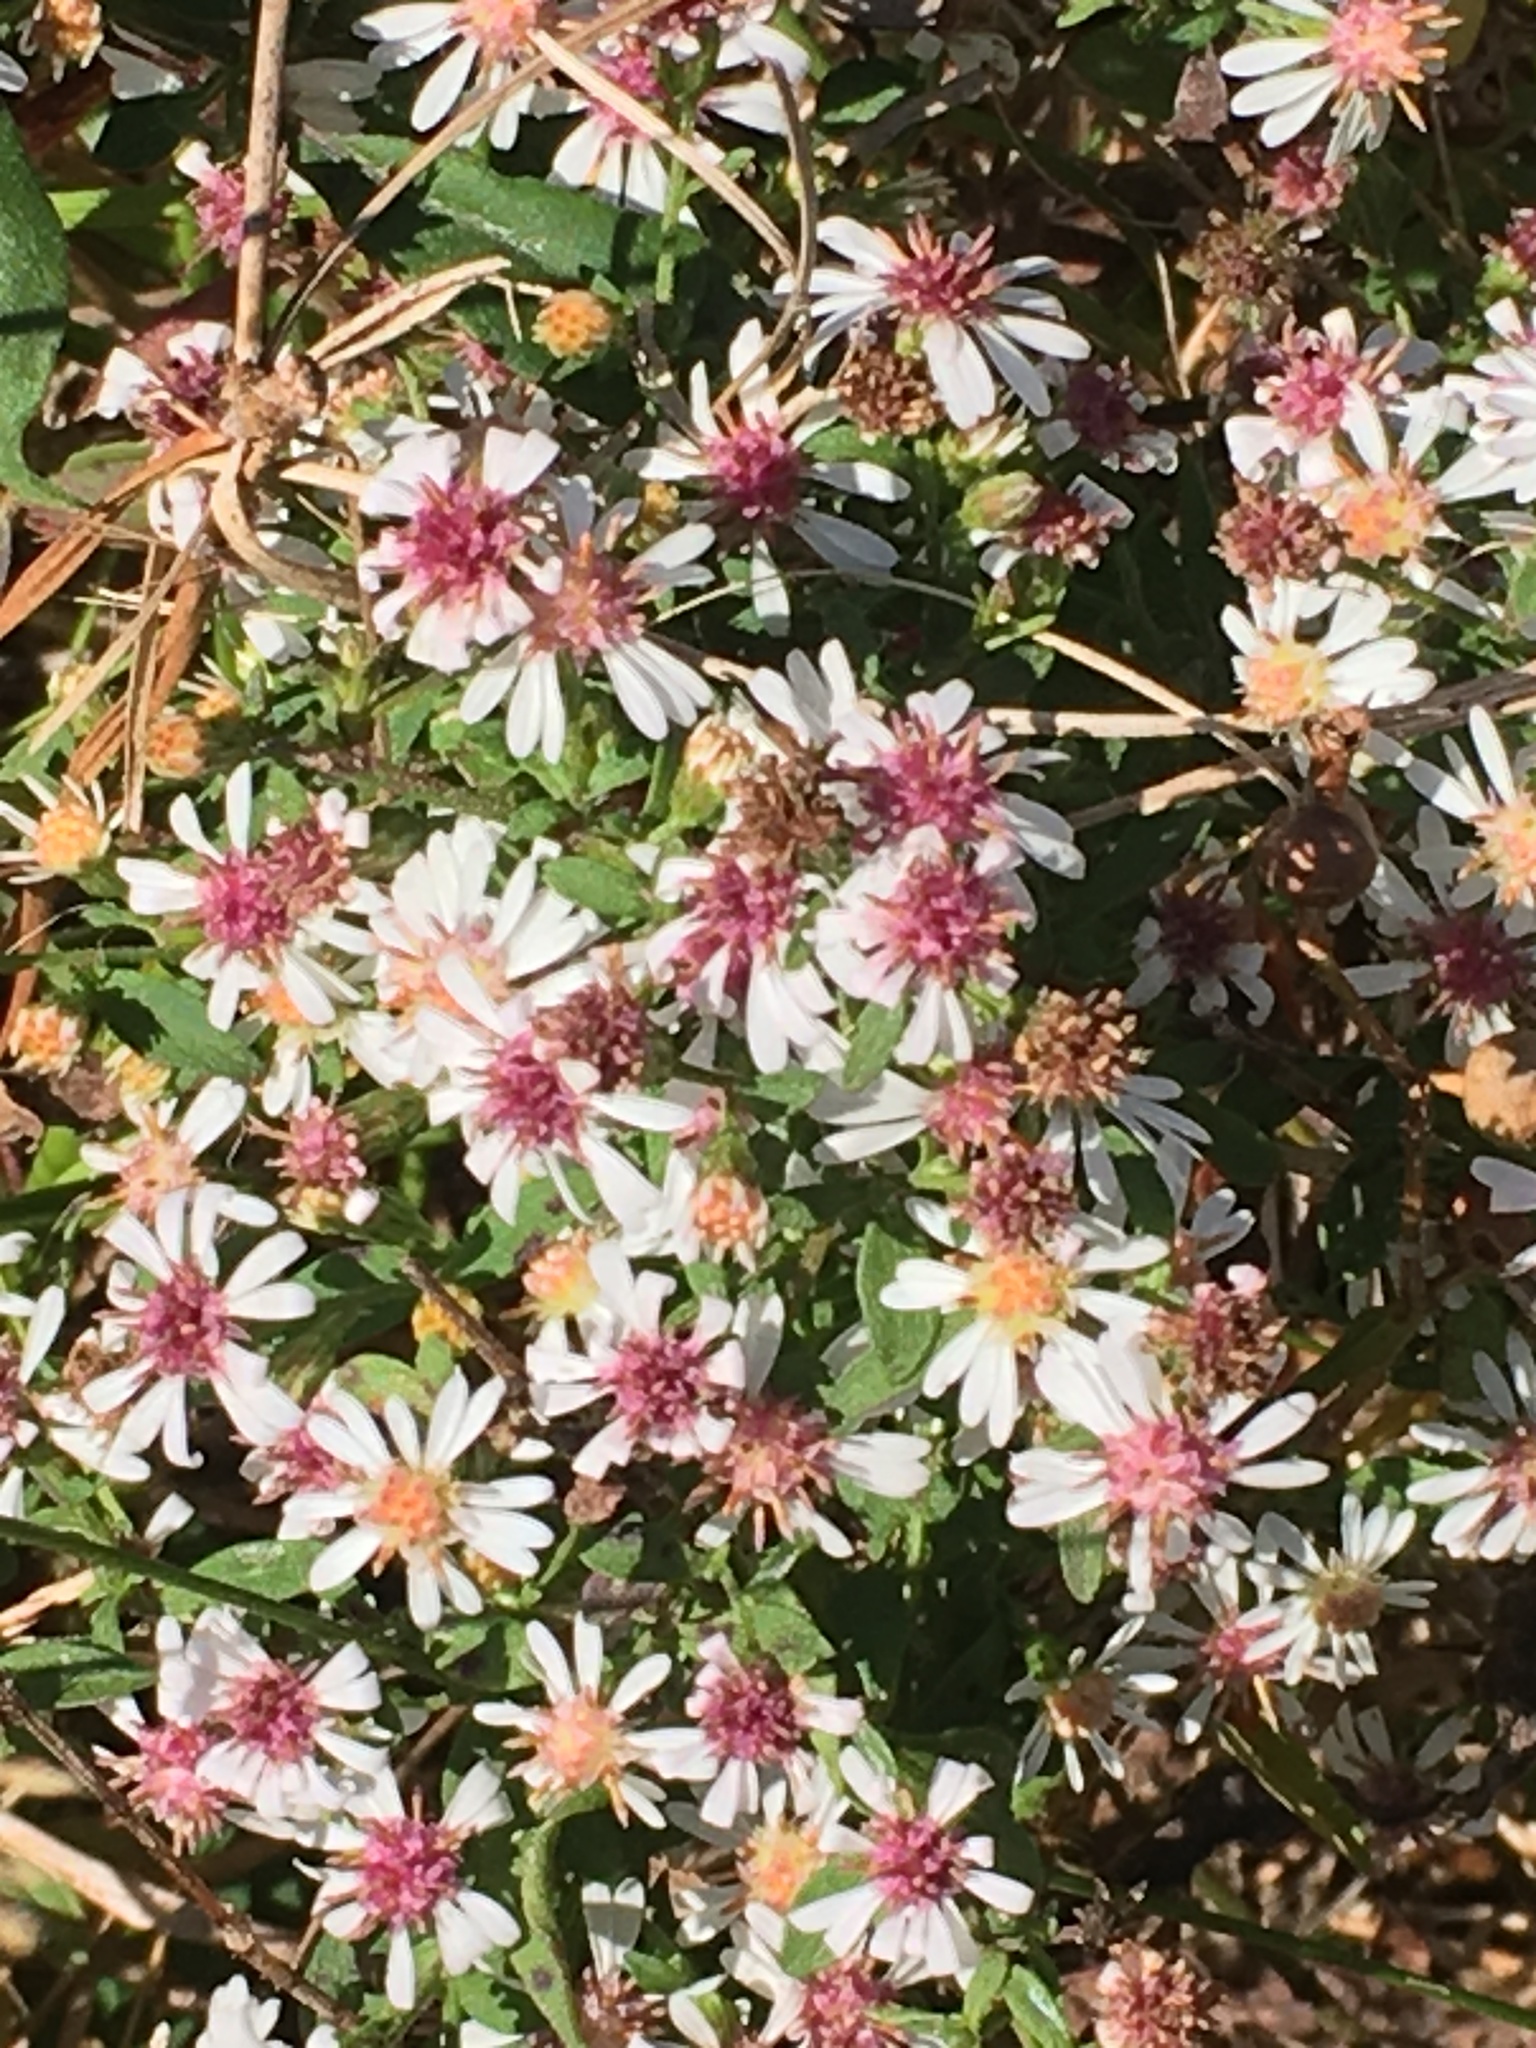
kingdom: Plantae
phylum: Tracheophyta
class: Magnoliopsida
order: Asterales
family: Asteraceae
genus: Symphyotrichum
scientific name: Symphyotrichum lateriflorum
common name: Calico aster
